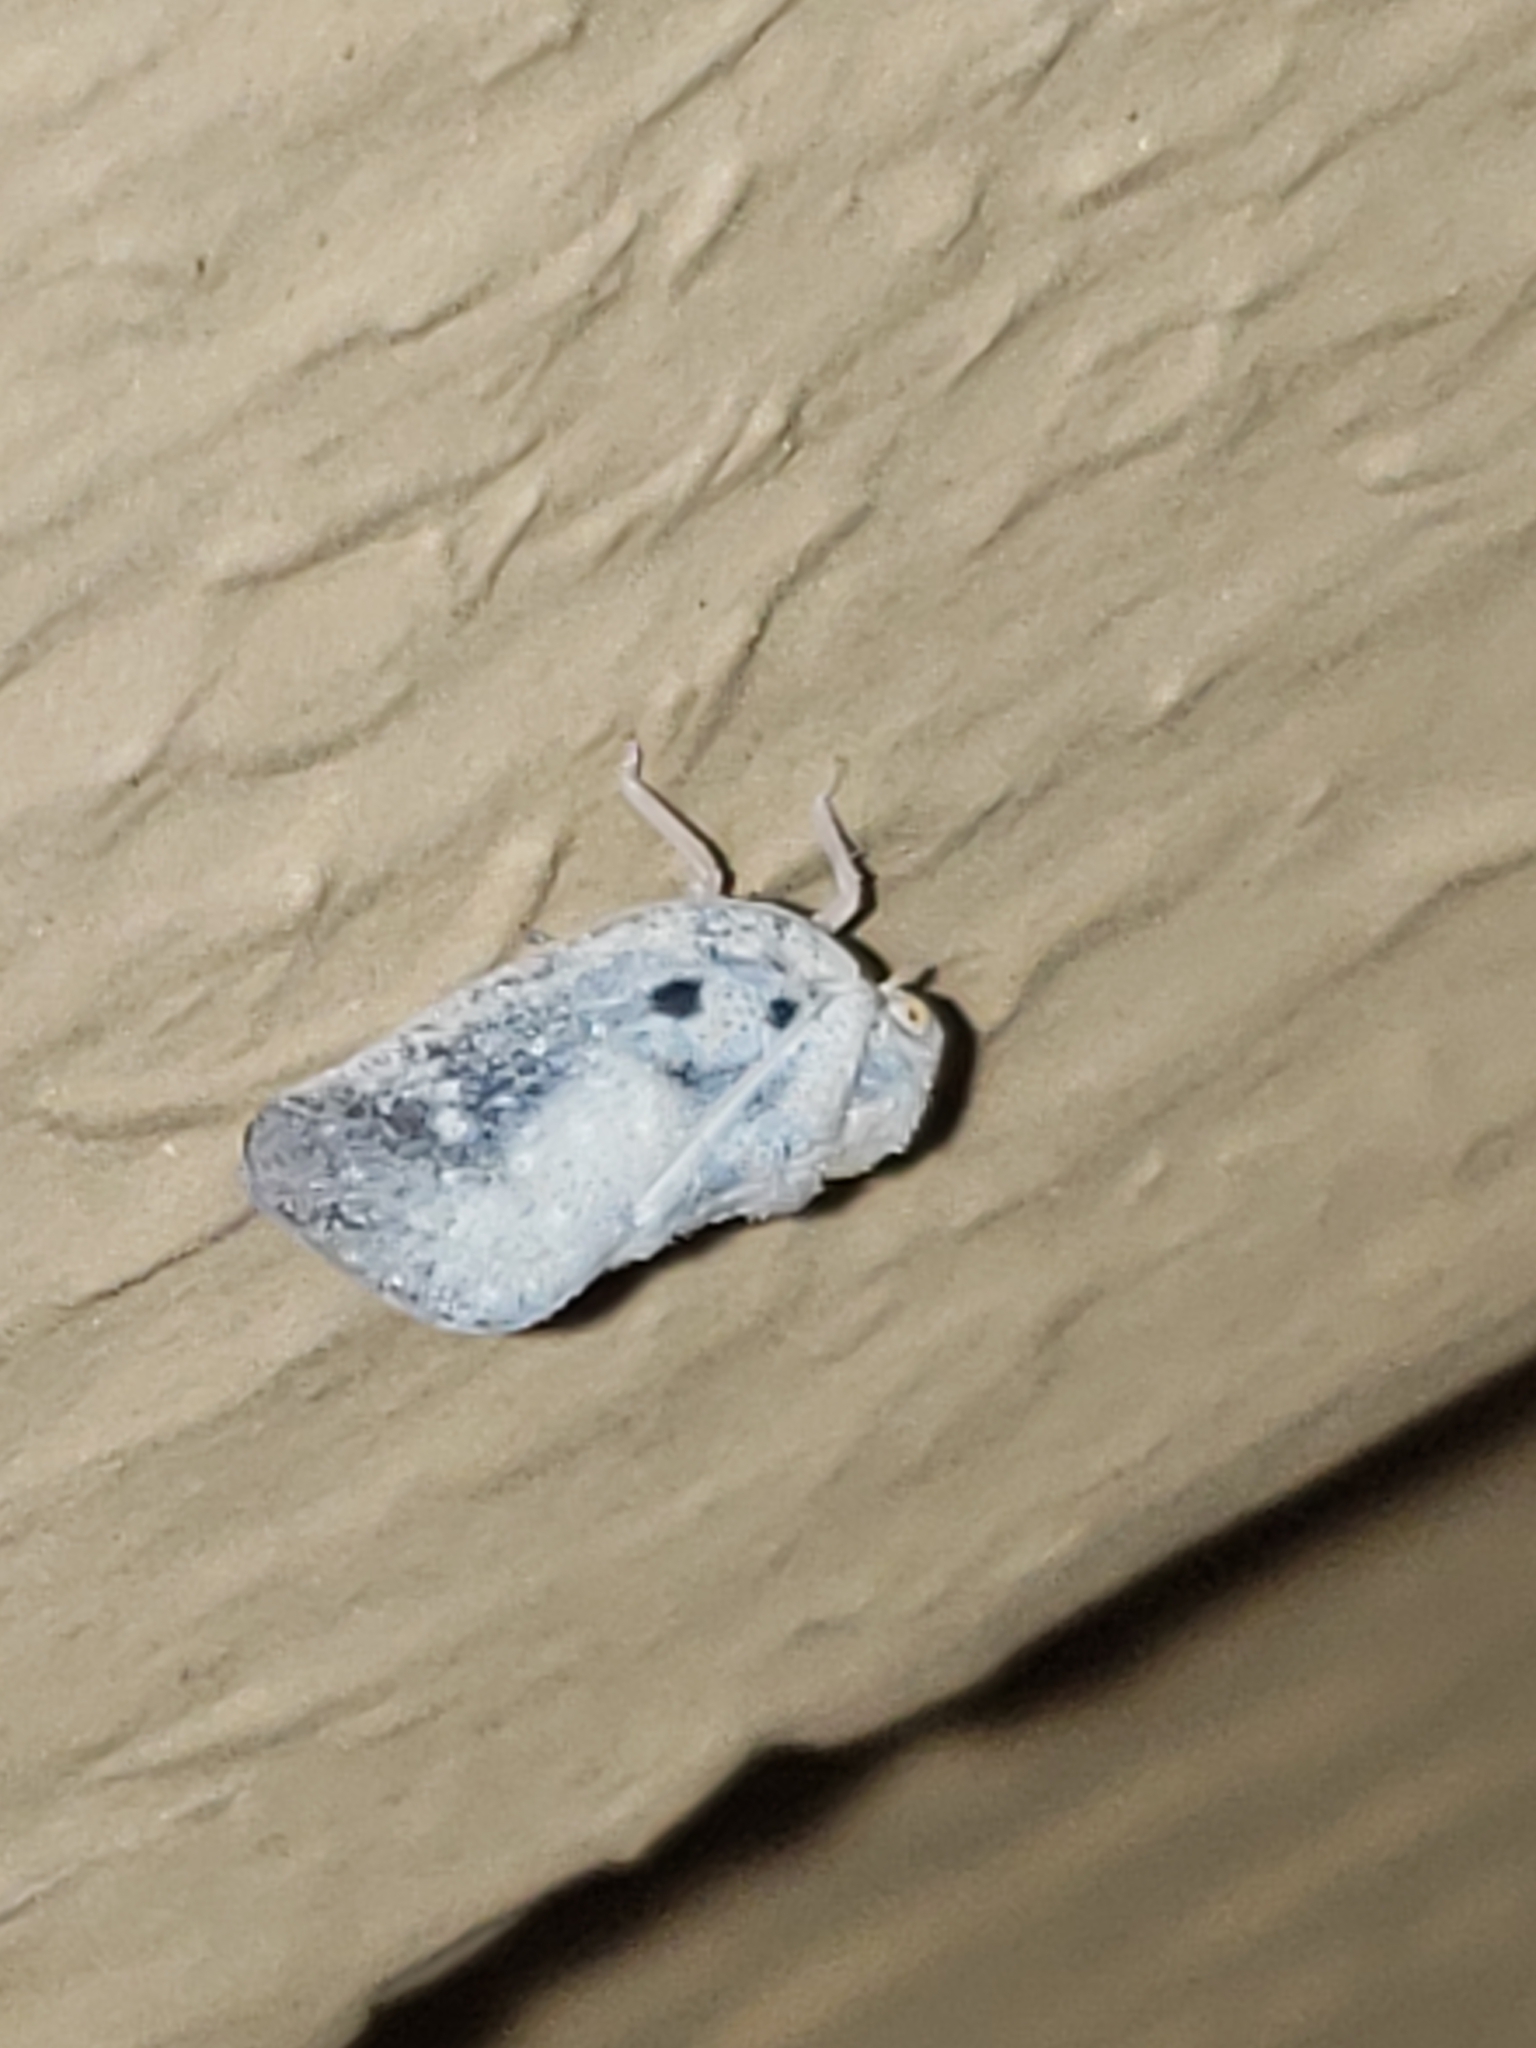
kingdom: Animalia
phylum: Arthropoda
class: Insecta
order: Hemiptera
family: Flatidae
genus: Metcalfa
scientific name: Metcalfa pruinosa
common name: Citrus flatid planthopper
